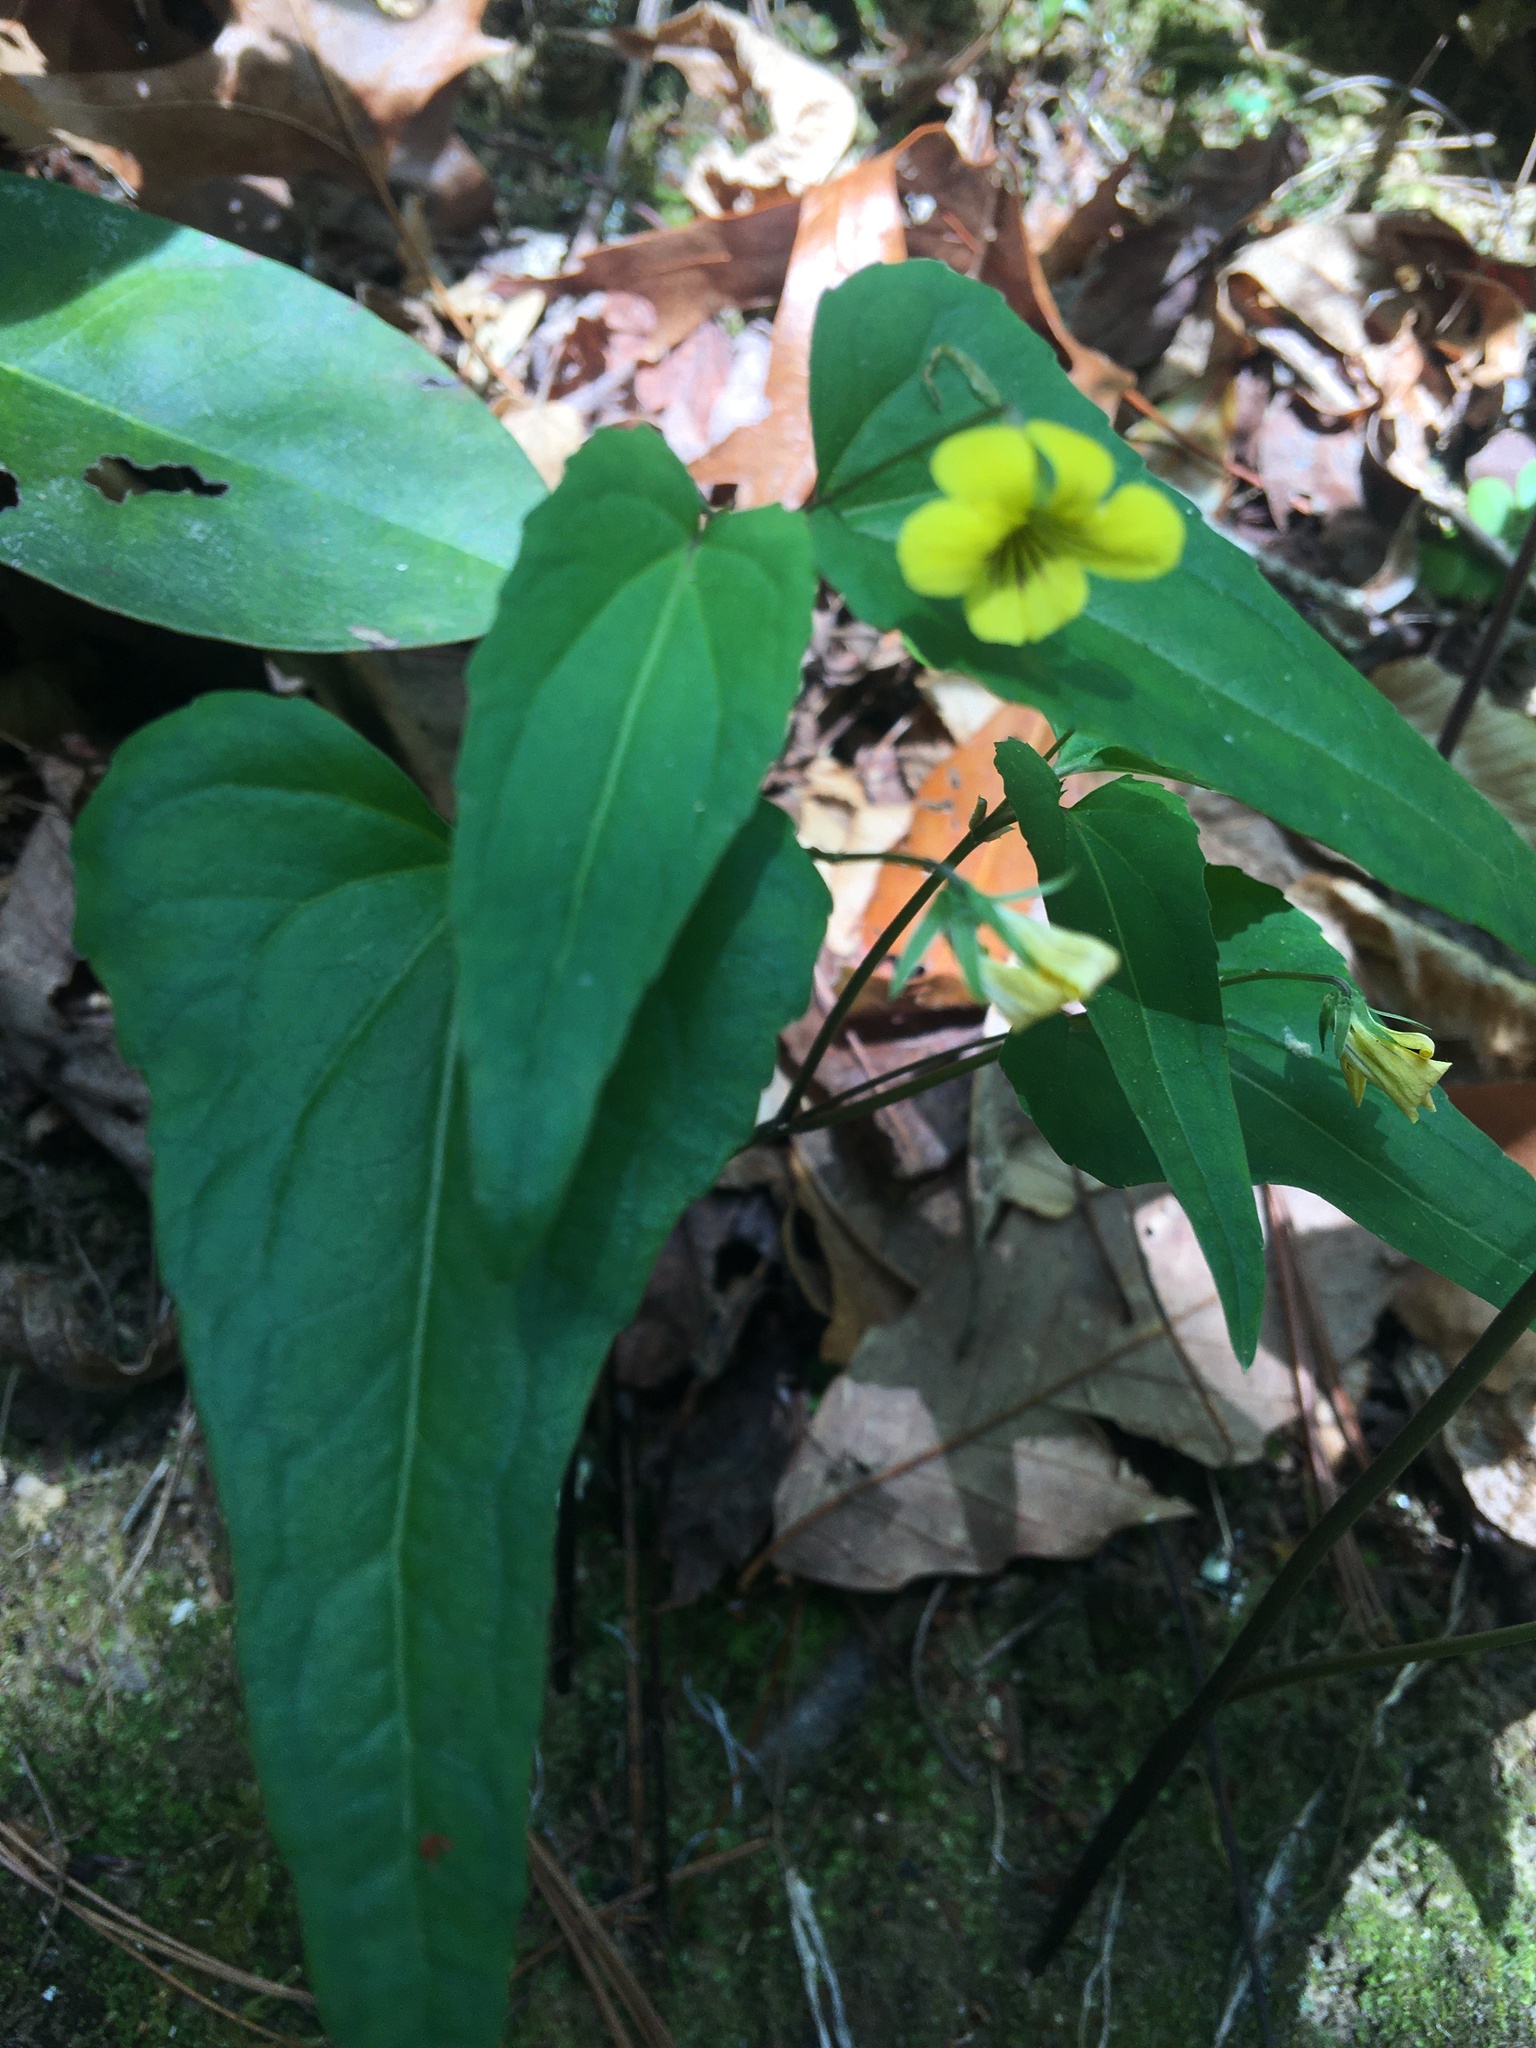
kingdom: Plantae
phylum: Tracheophyta
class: Magnoliopsida
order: Malpighiales
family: Violaceae
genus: Viola
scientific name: Viola hastata
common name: Spear-leaf violet
